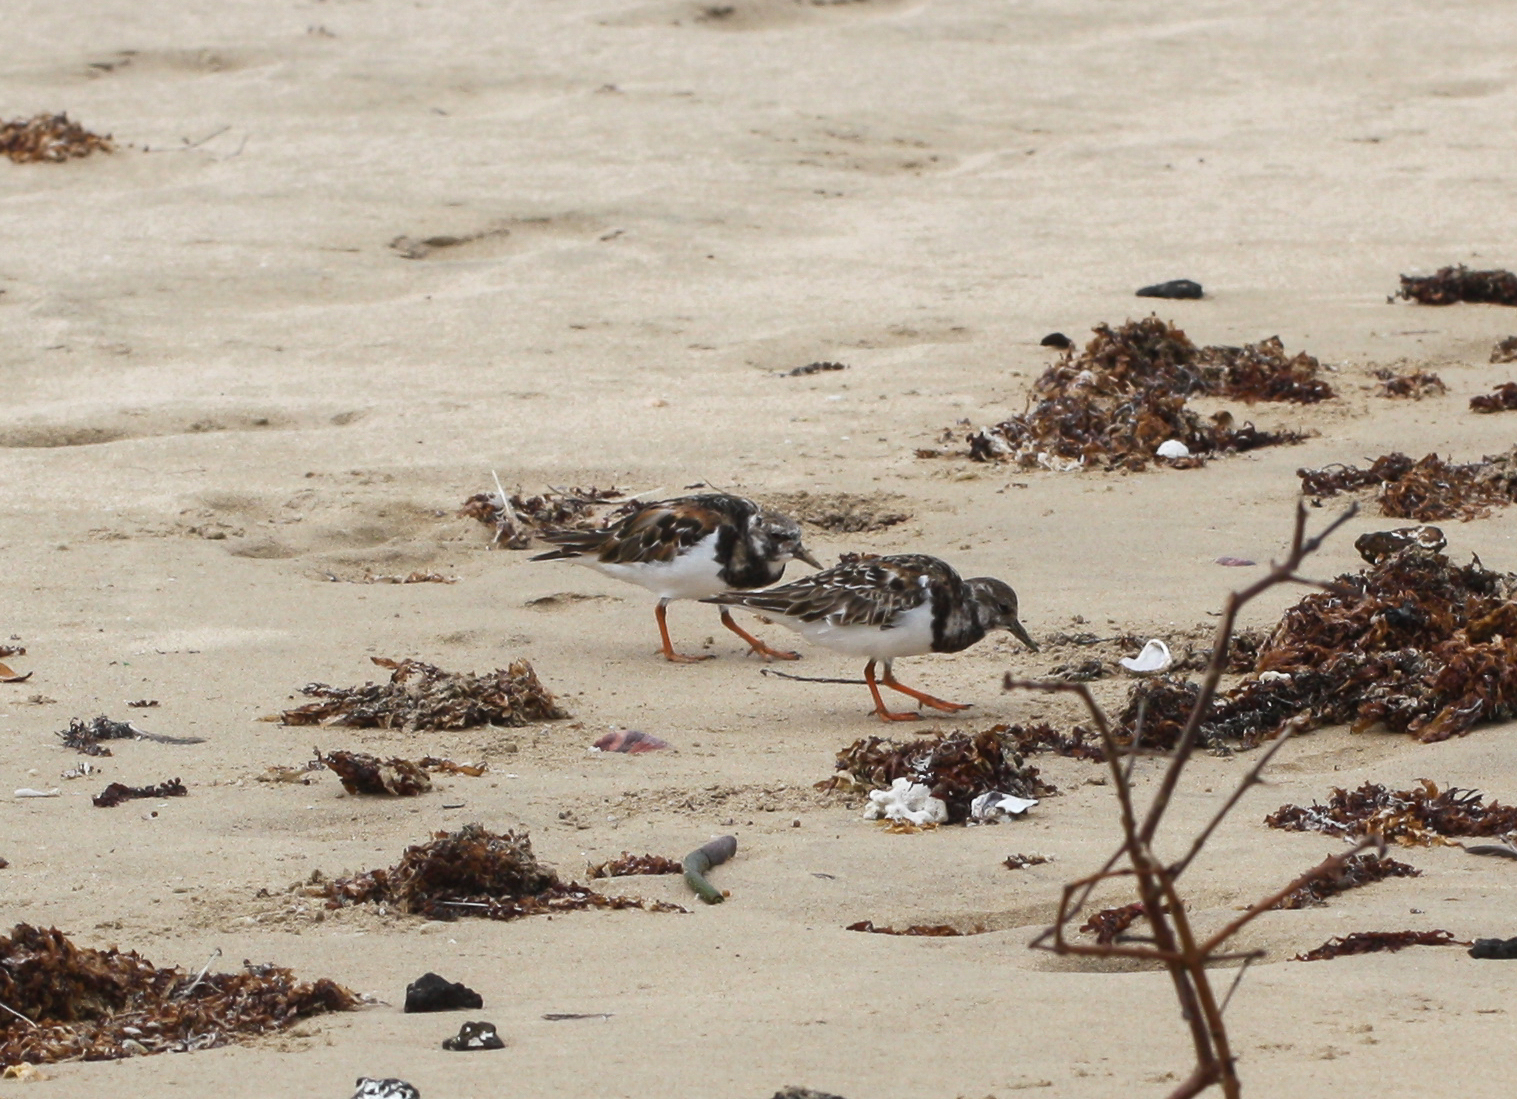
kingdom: Animalia
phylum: Chordata
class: Aves
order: Charadriiformes
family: Scolopacidae
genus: Arenaria
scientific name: Arenaria interpres
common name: Ruddy turnstone
